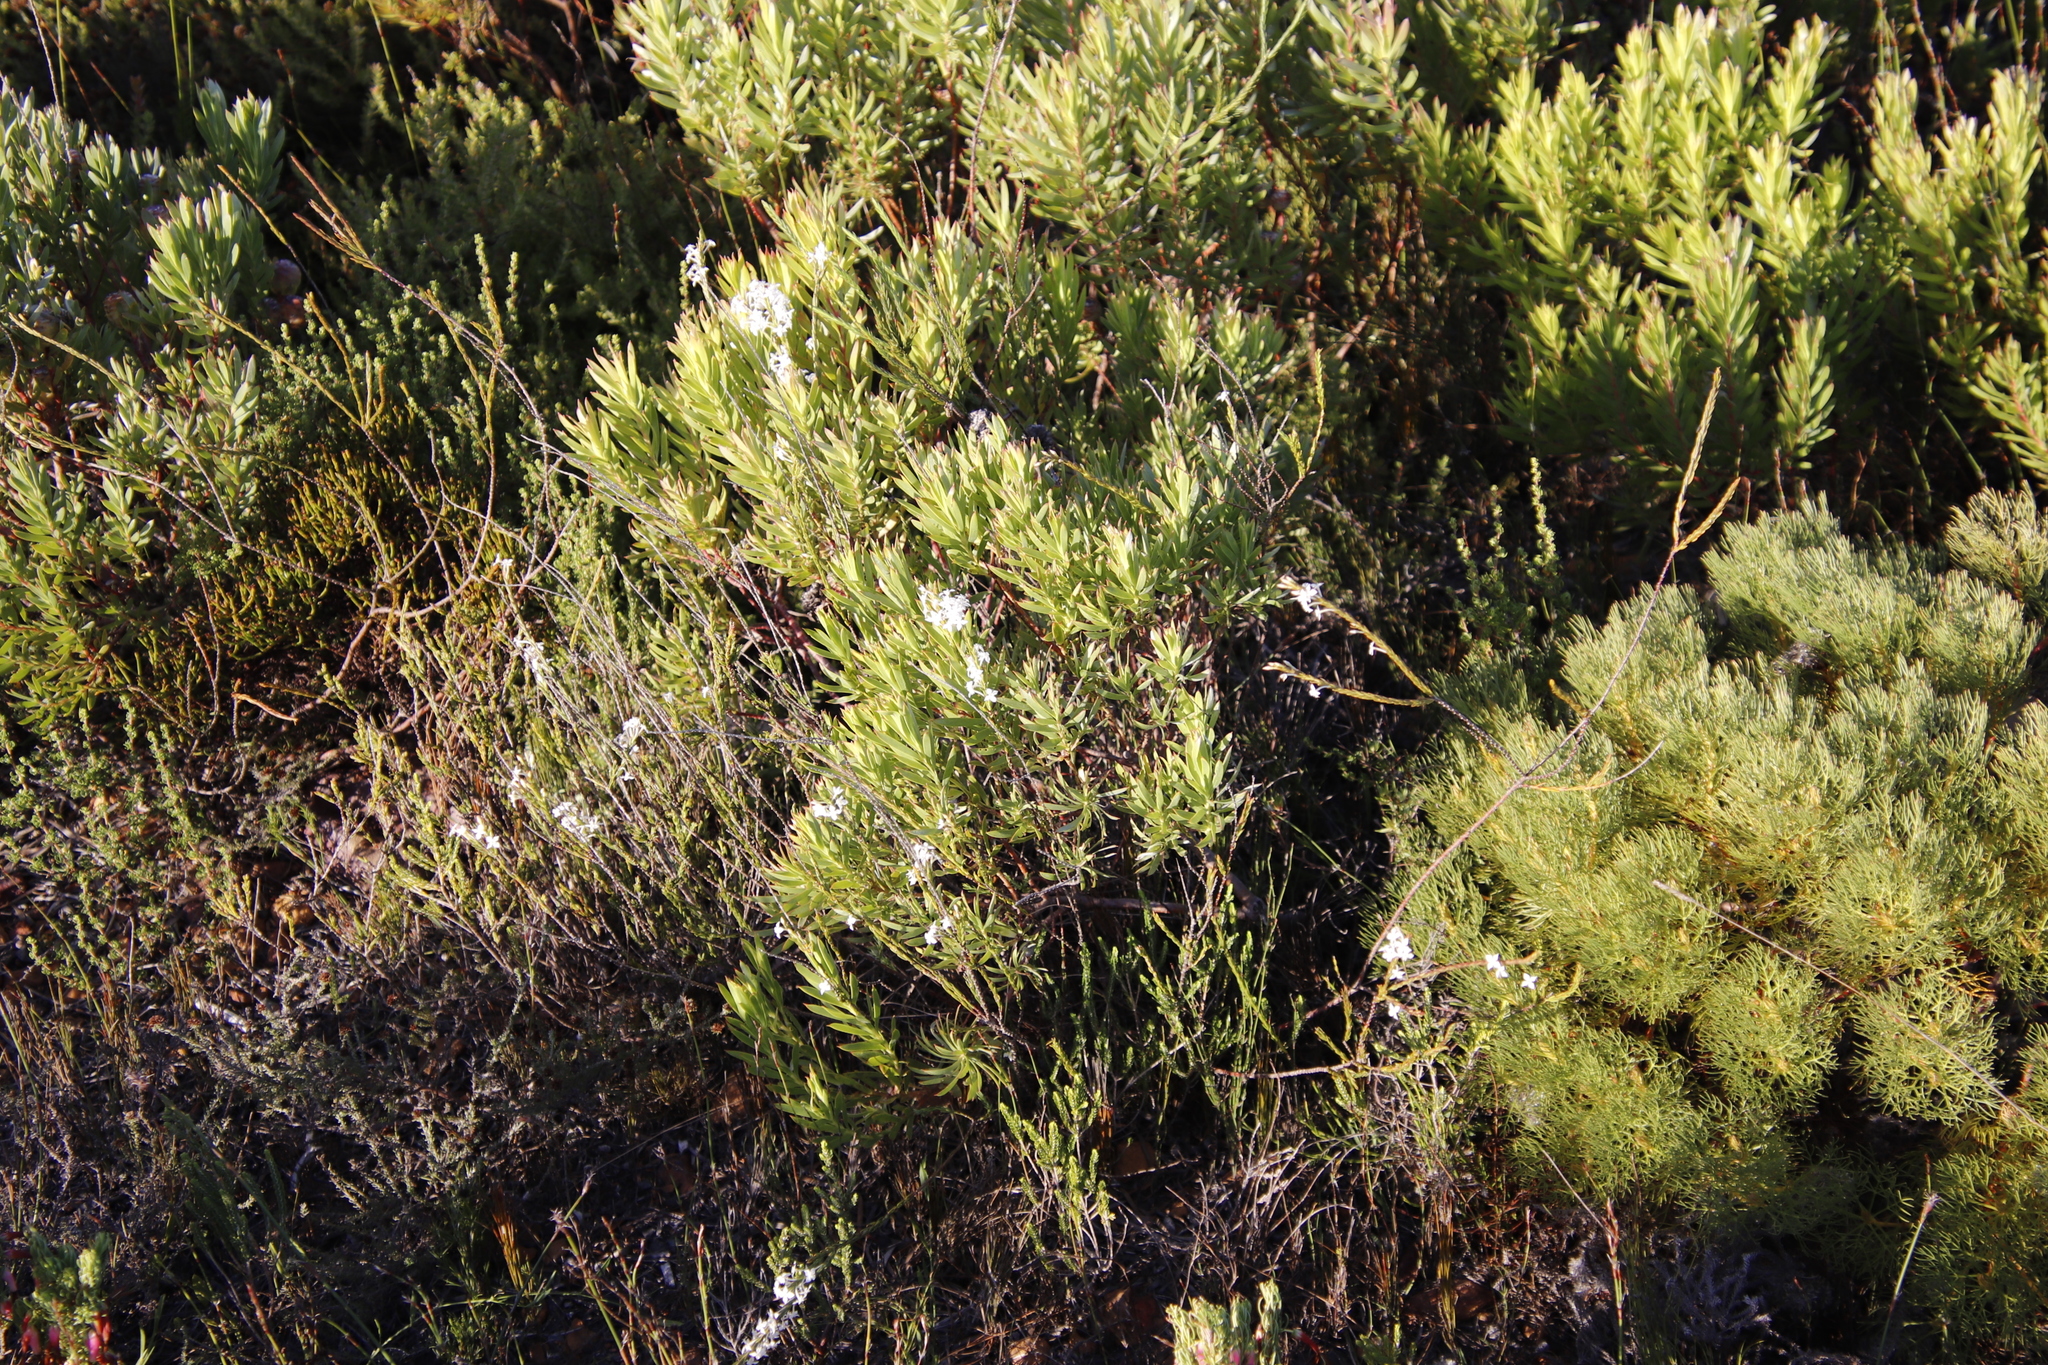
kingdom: Plantae
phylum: Tracheophyta
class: Magnoliopsida
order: Malvales
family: Thymelaeaceae
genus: Struthiola
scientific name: Struthiola dodecandra
